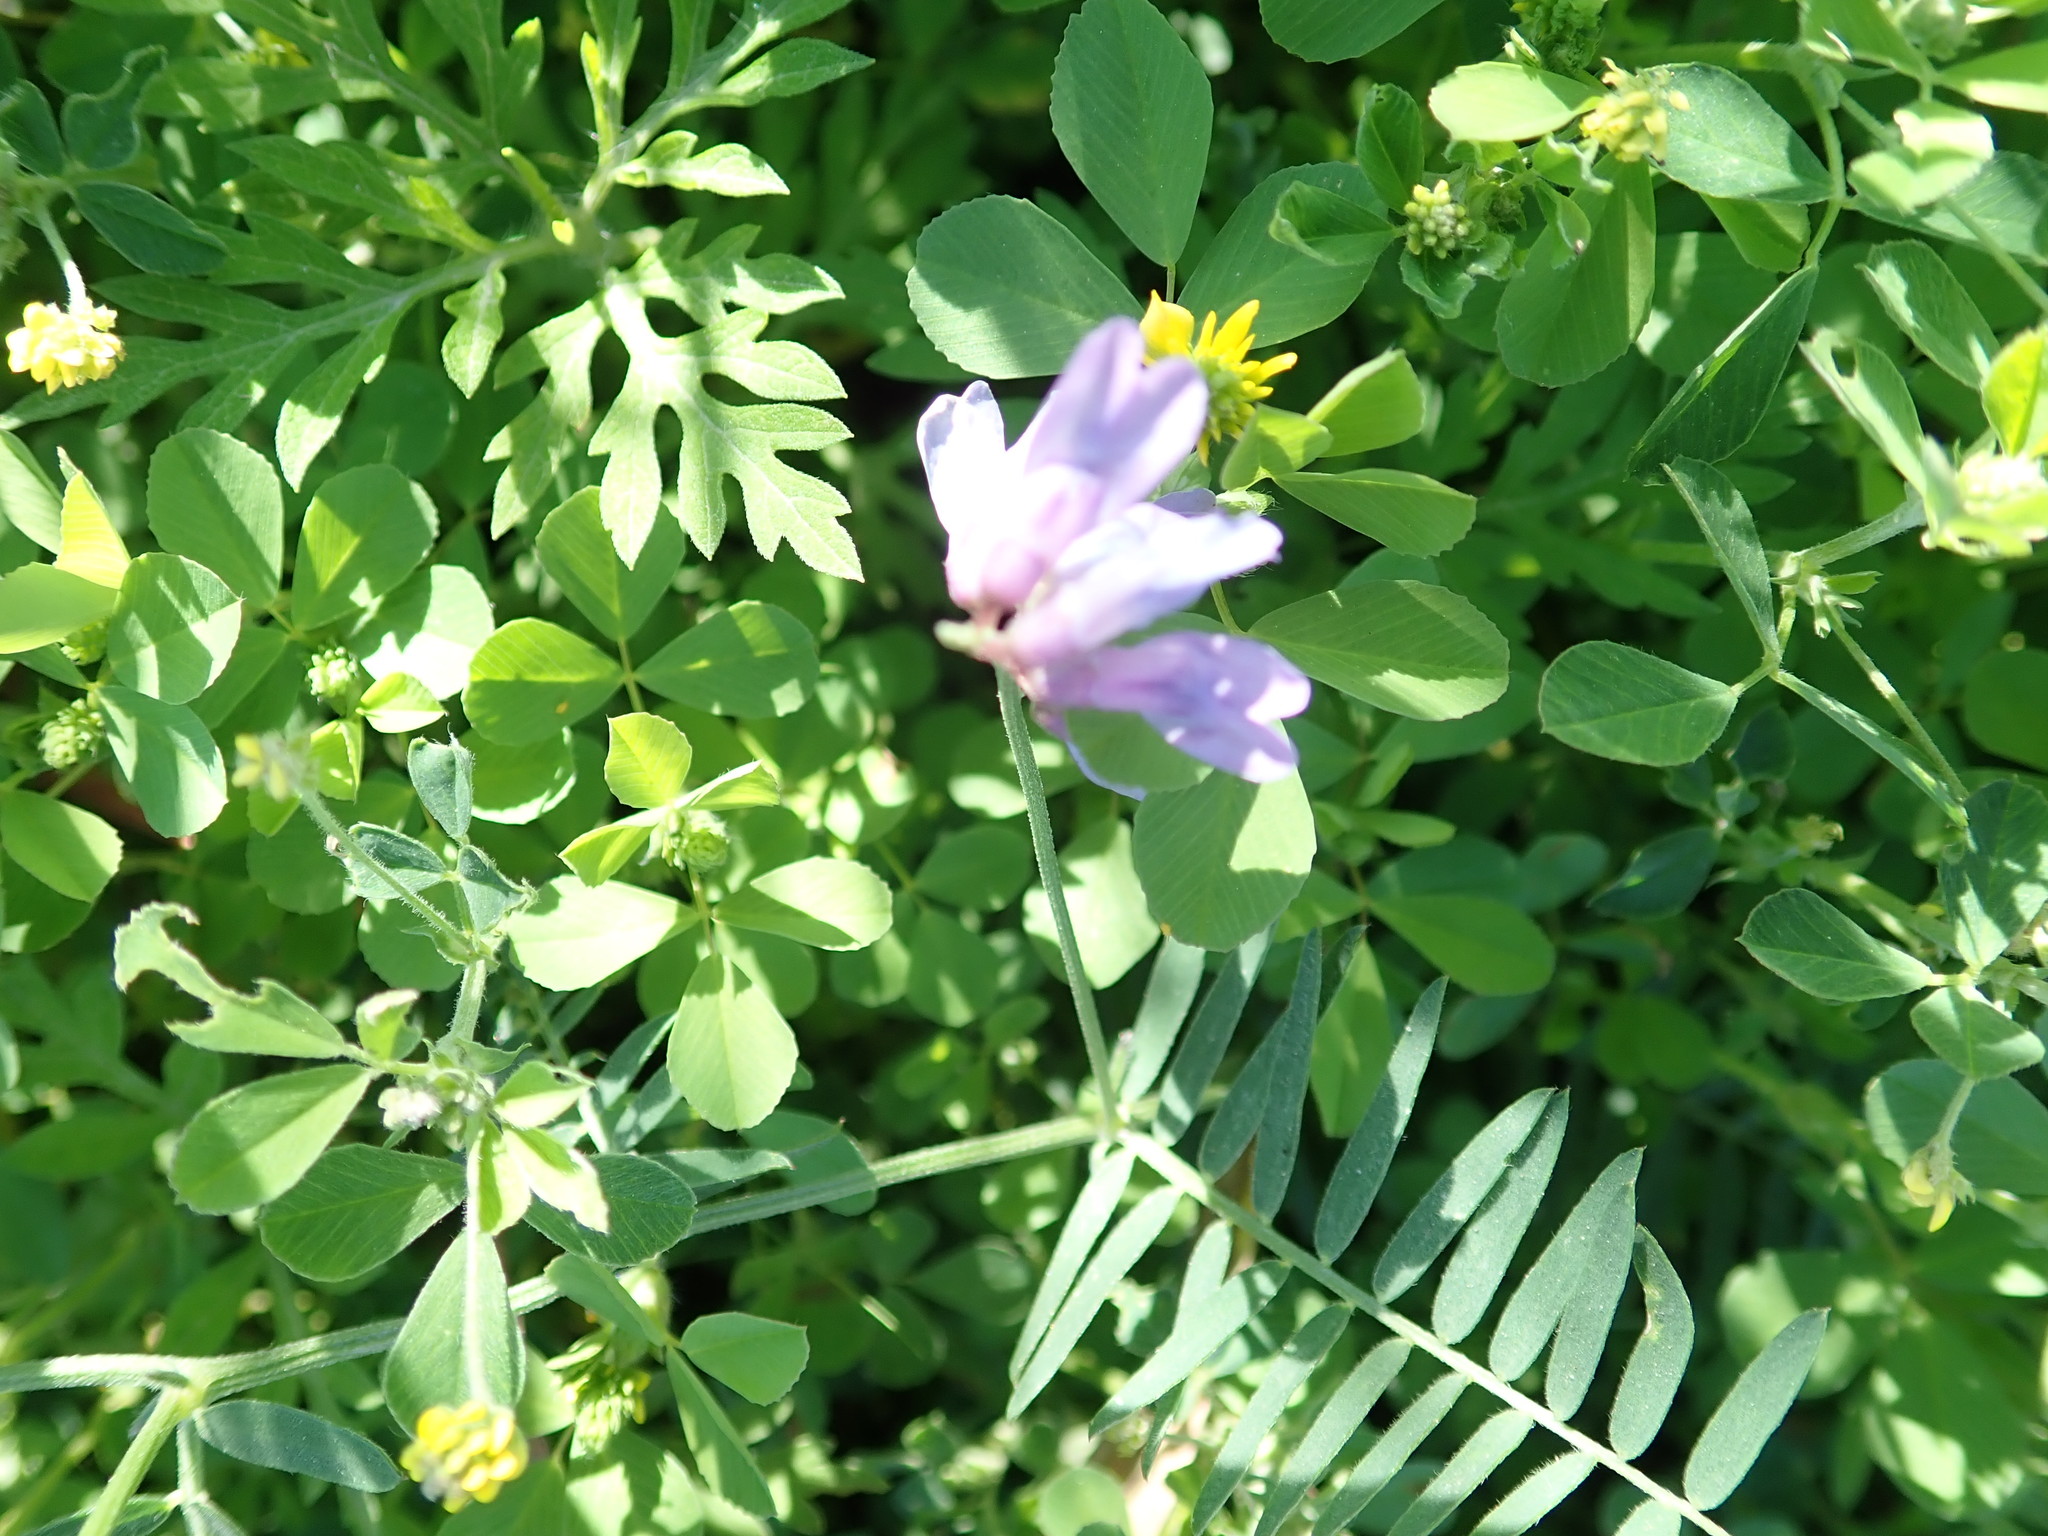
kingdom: Plantae
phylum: Tracheophyta
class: Magnoliopsida
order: Fabales
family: Fabaceae
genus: Vicia
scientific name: Vicia cracca
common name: Bird vetch
